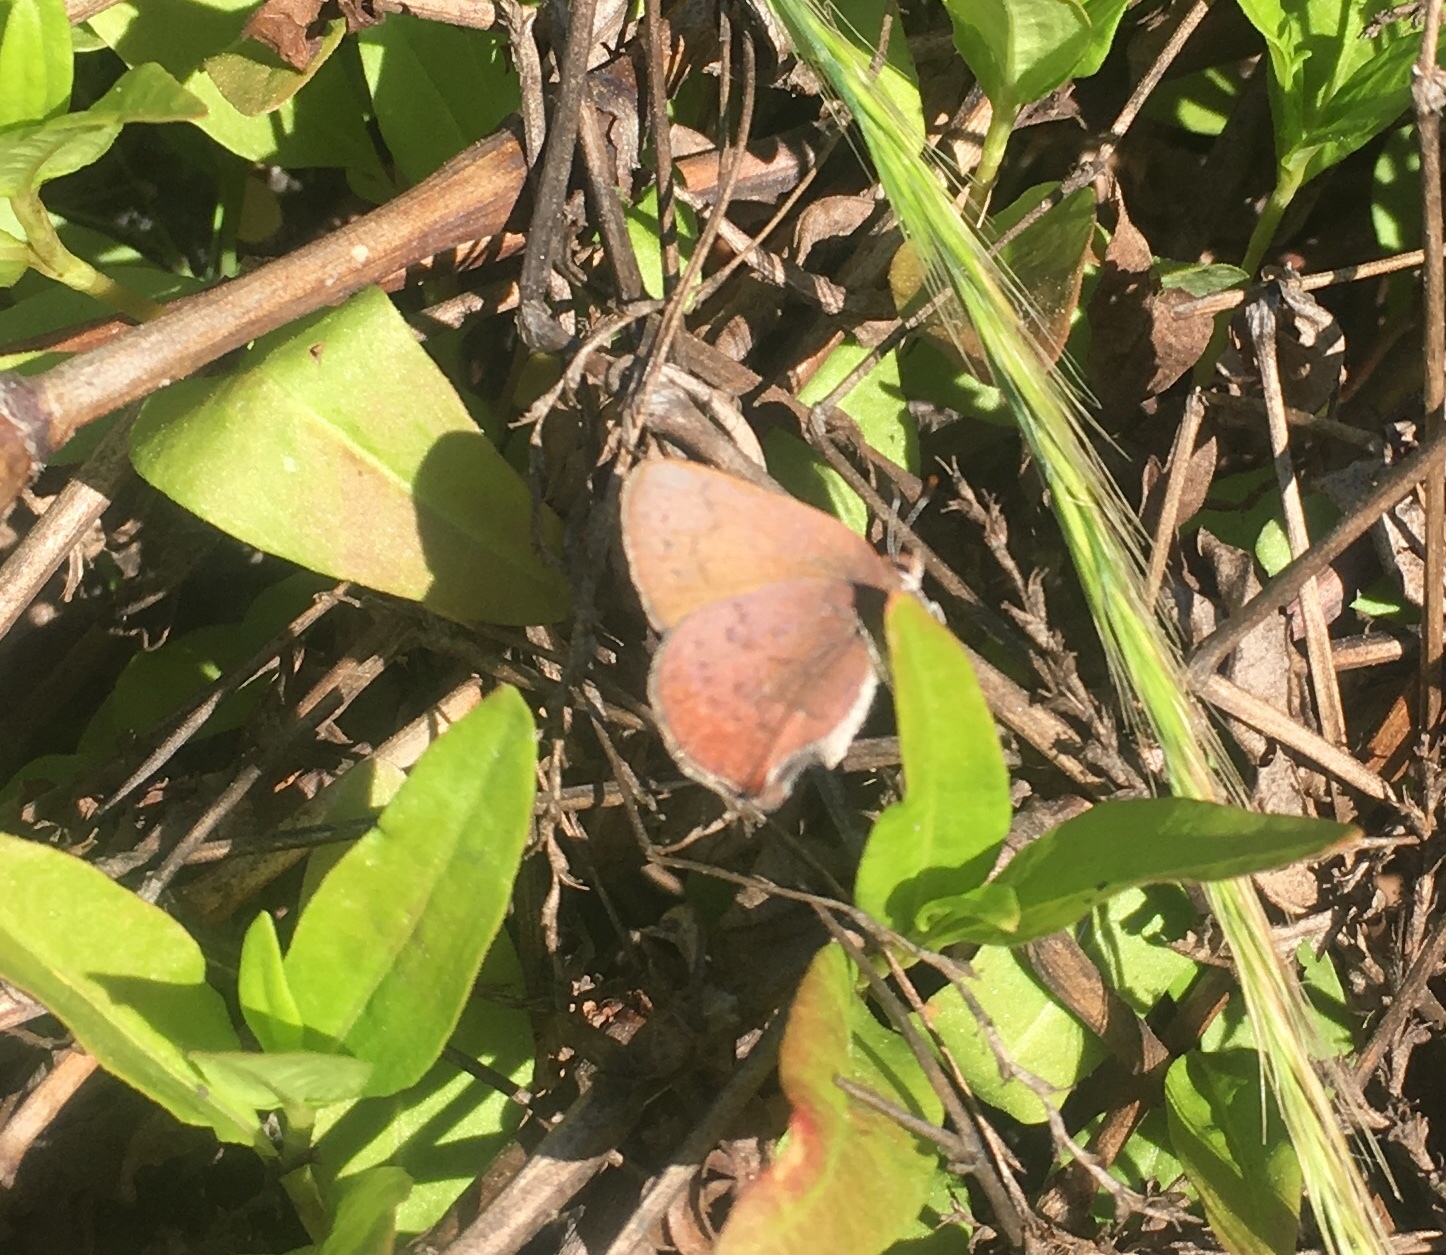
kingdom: Animalia
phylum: Arthropoda
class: Insecta
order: Lepidoptera
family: Lycaenidae
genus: Incisalia
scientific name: Incisalia irioides
